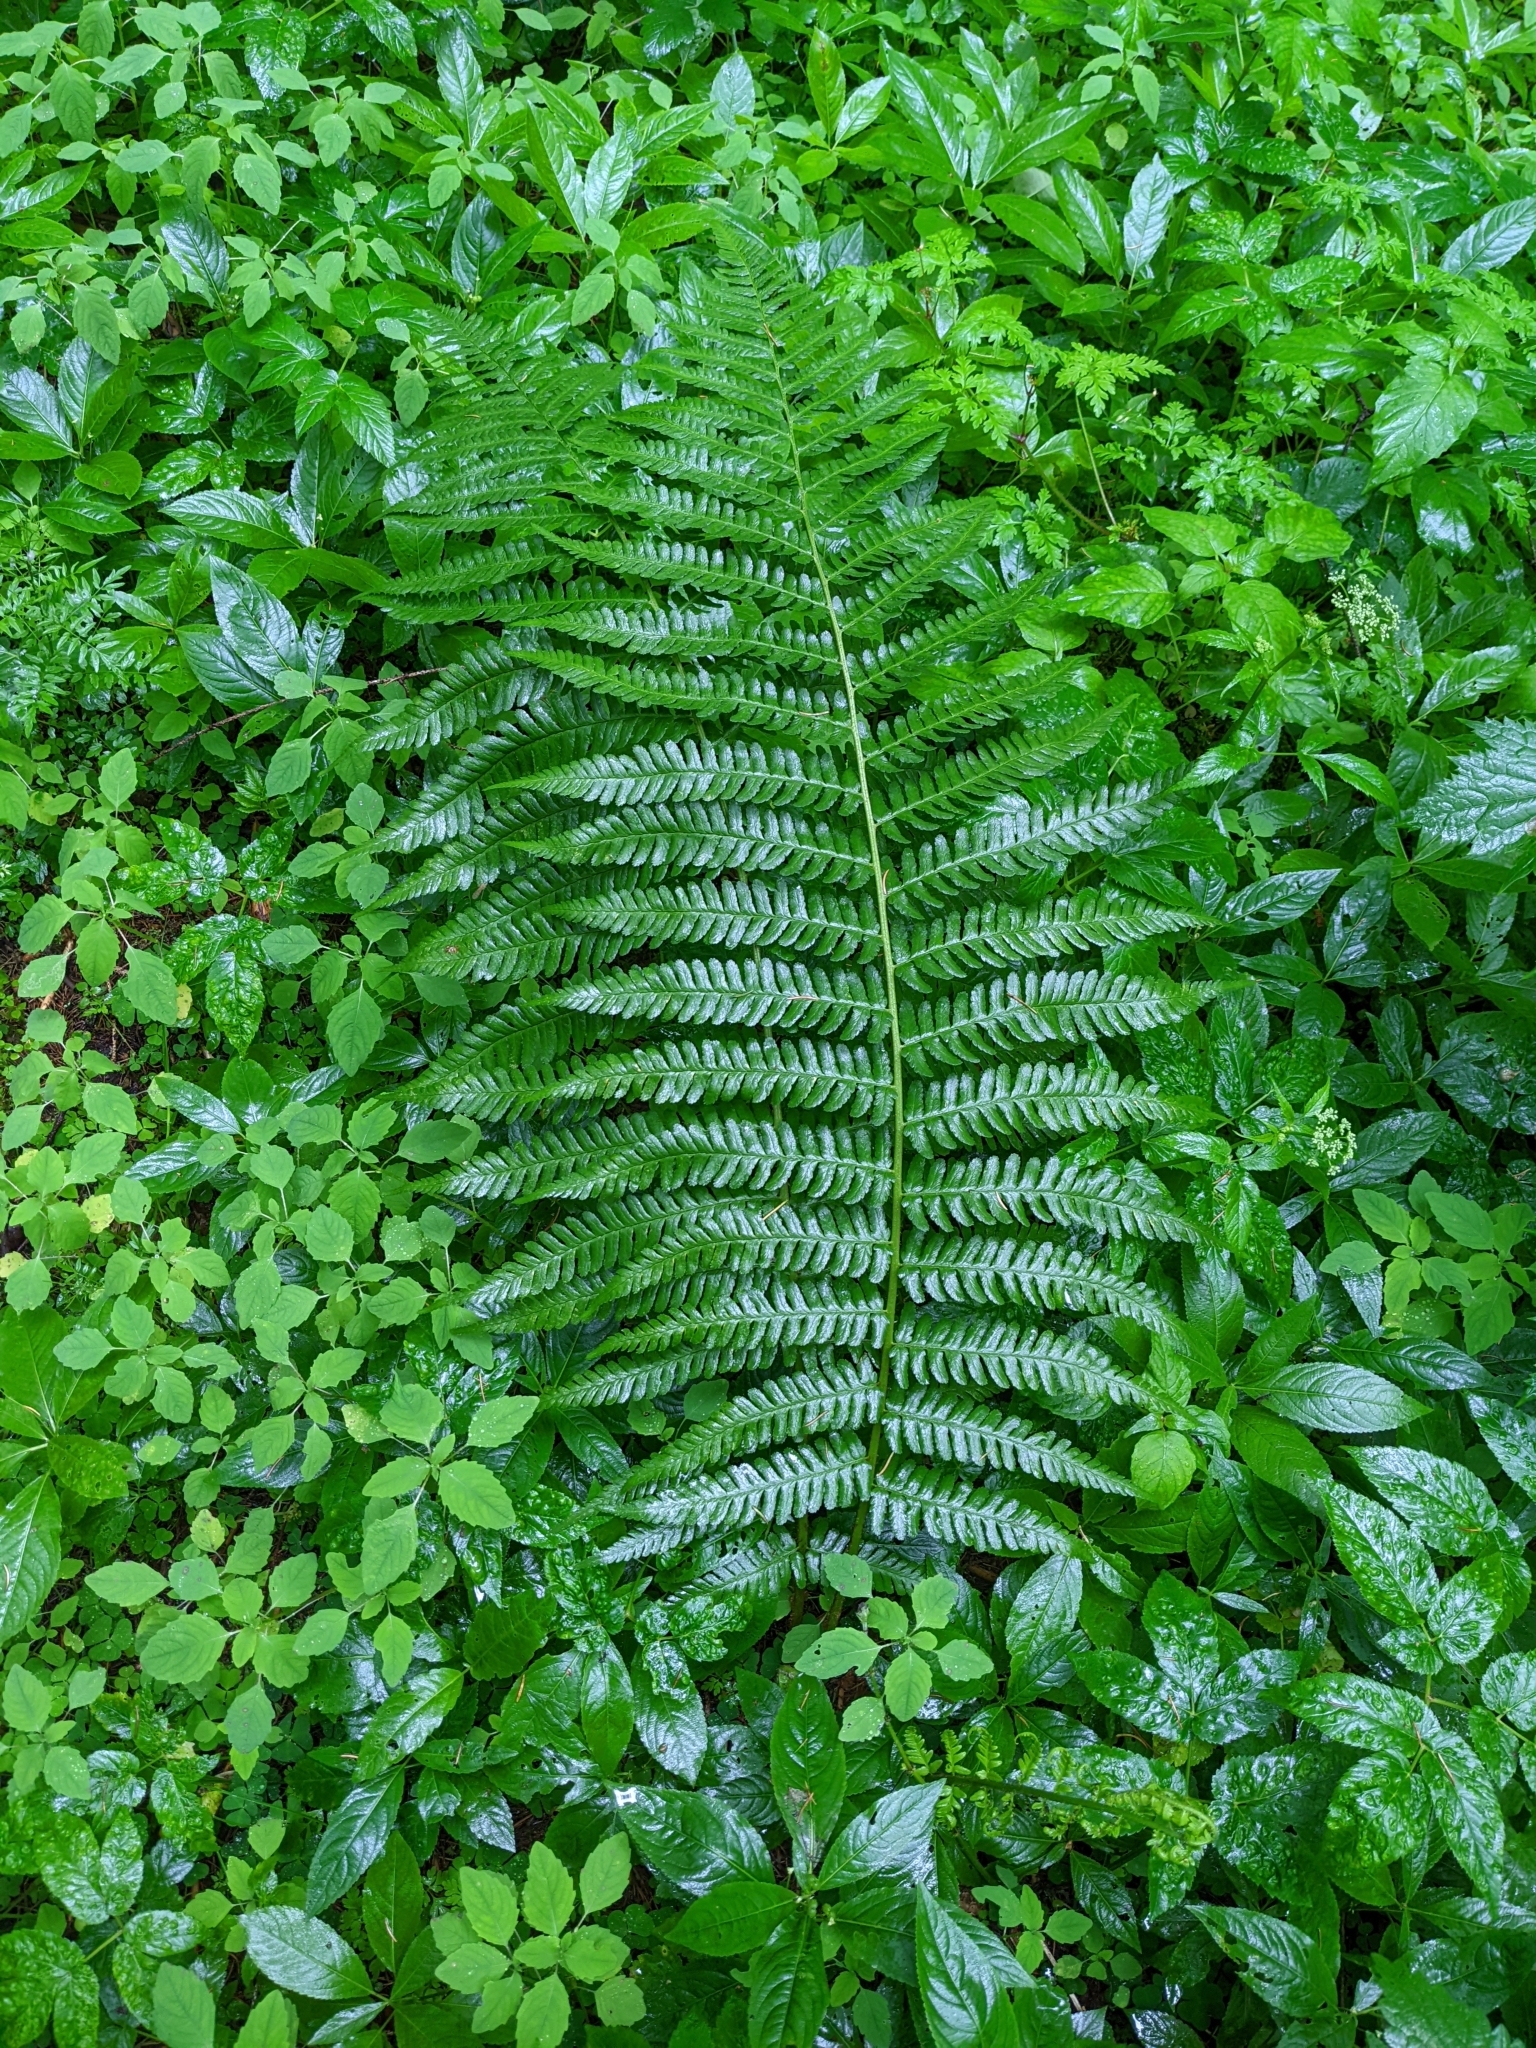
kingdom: Plantae
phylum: Tracheophyta
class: Polypodiopsida
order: Polypodiales
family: Dryopteridaceae
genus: Dryopteris
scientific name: Dryopteris filix-mas
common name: Male fern
